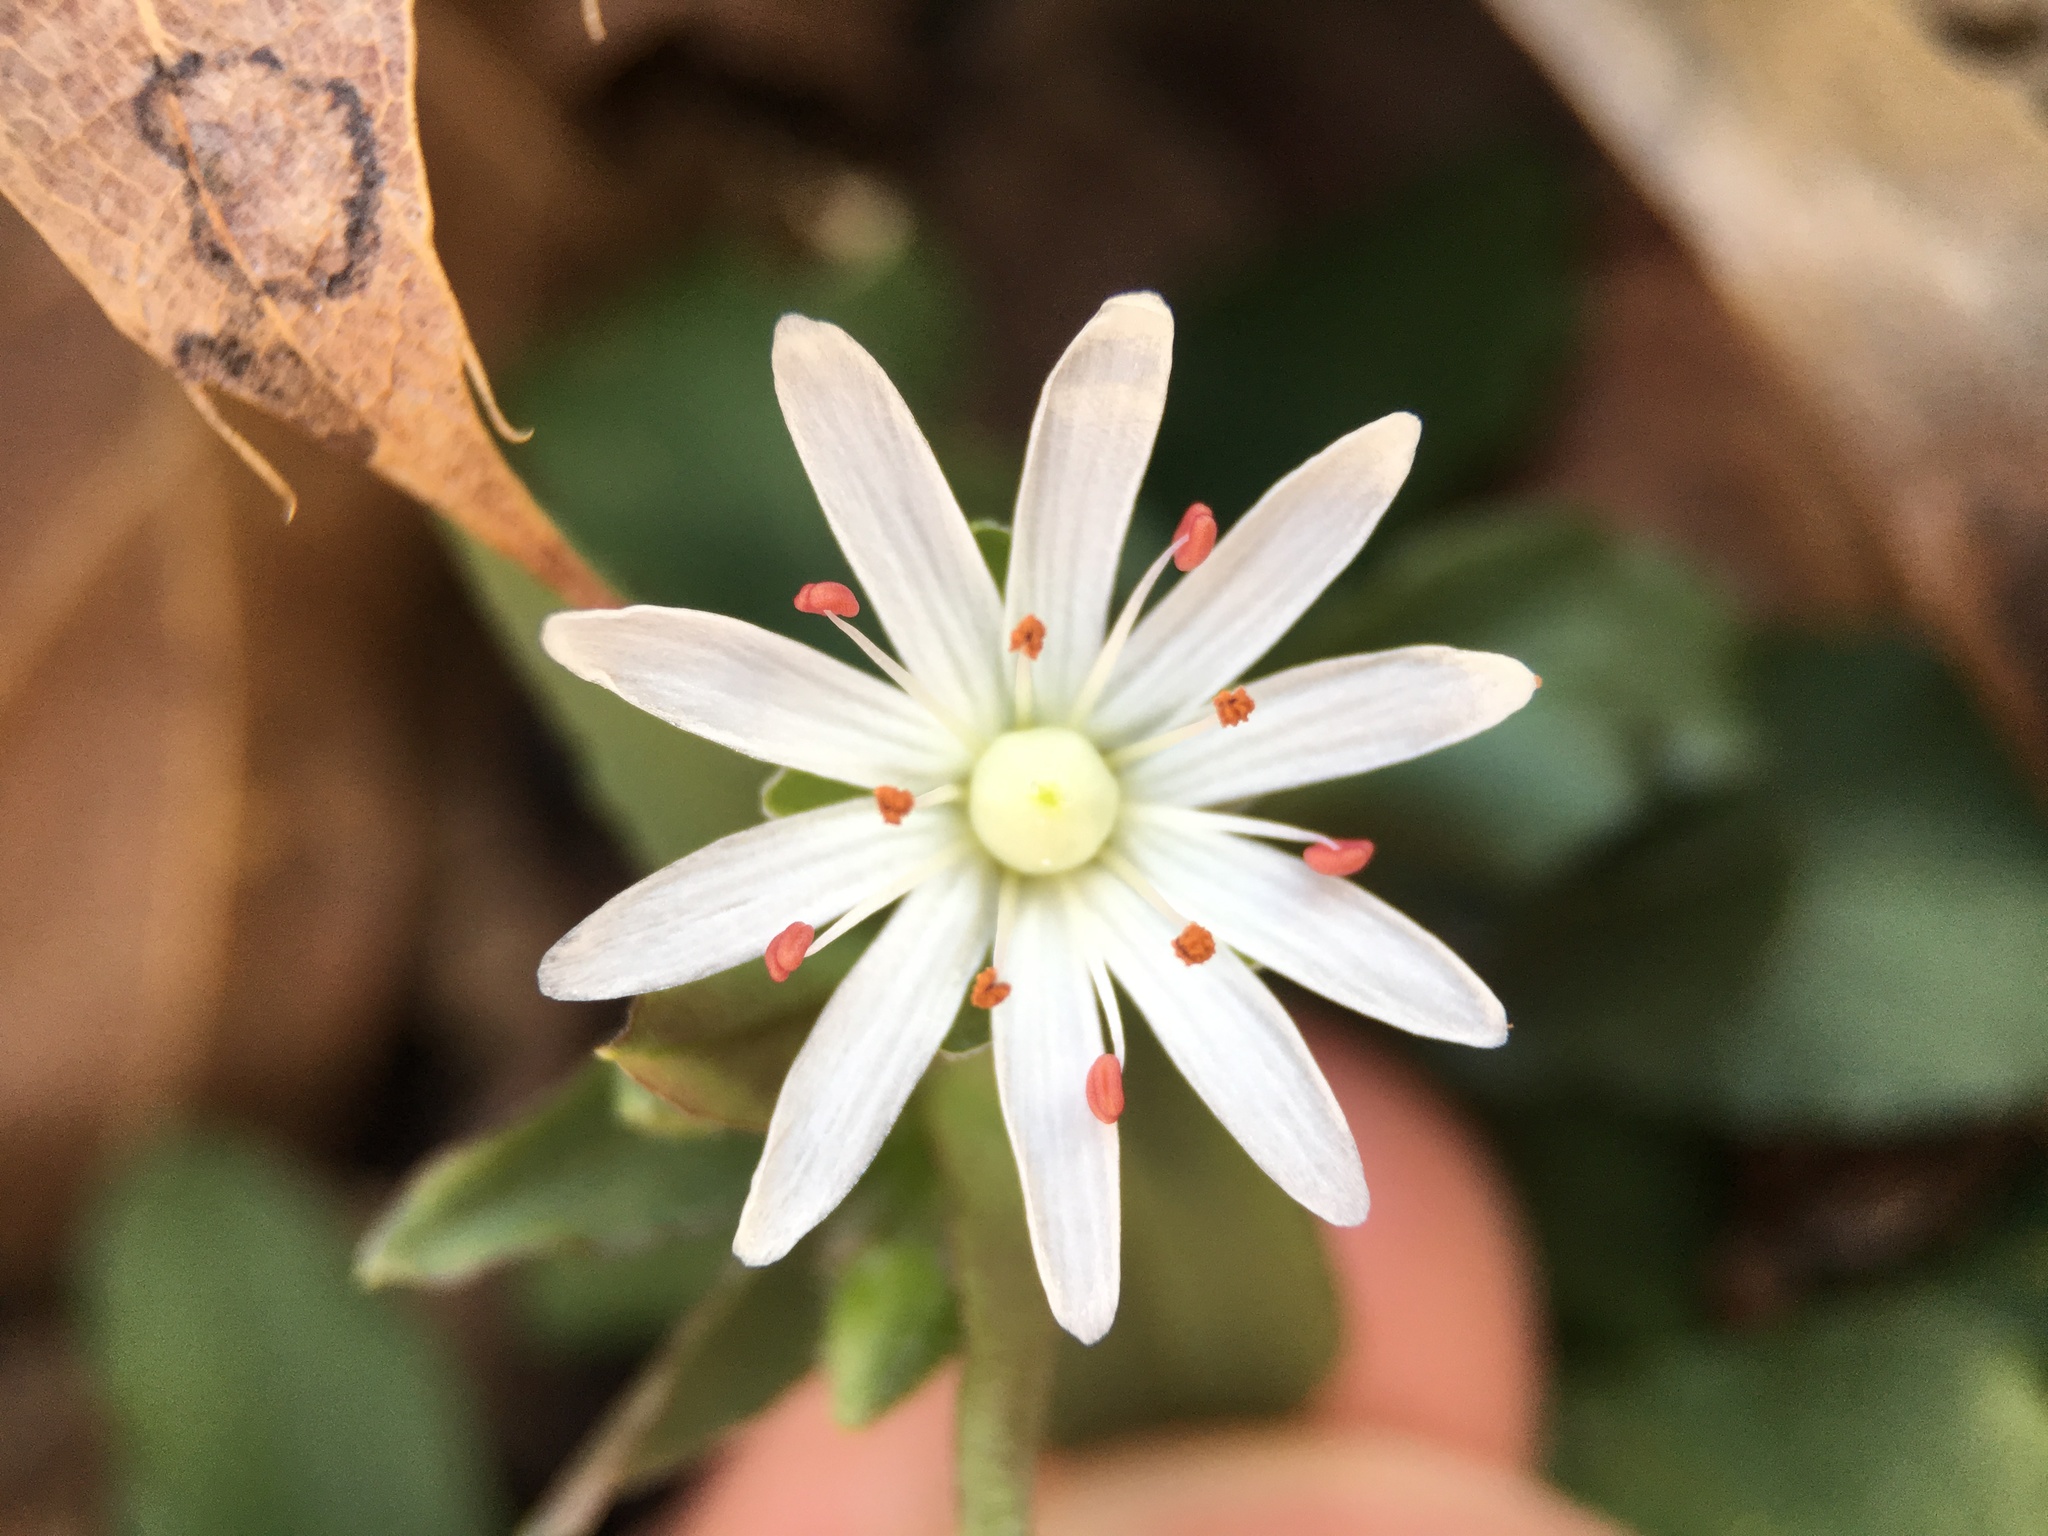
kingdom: Plantae
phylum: Tracheophyta
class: Magnoliopsida
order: Caryophyllales
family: Caryophyllaceae
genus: Stellaria
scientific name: Stellaria pubera
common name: Star chickweed
